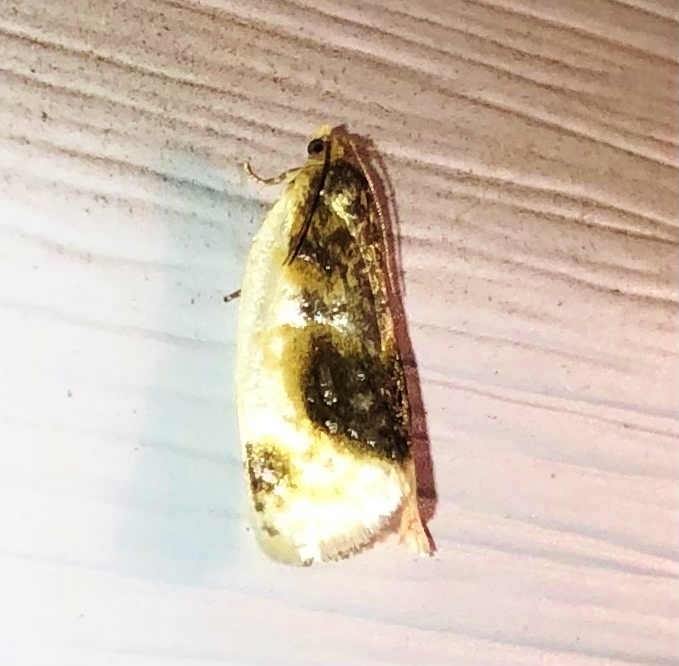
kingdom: Animalia
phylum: Arthropoda
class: Insecta
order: Lepidoptera
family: Tortricidae
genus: Clepsis
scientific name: Clepsis melaleucanus
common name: American apple tortrix
